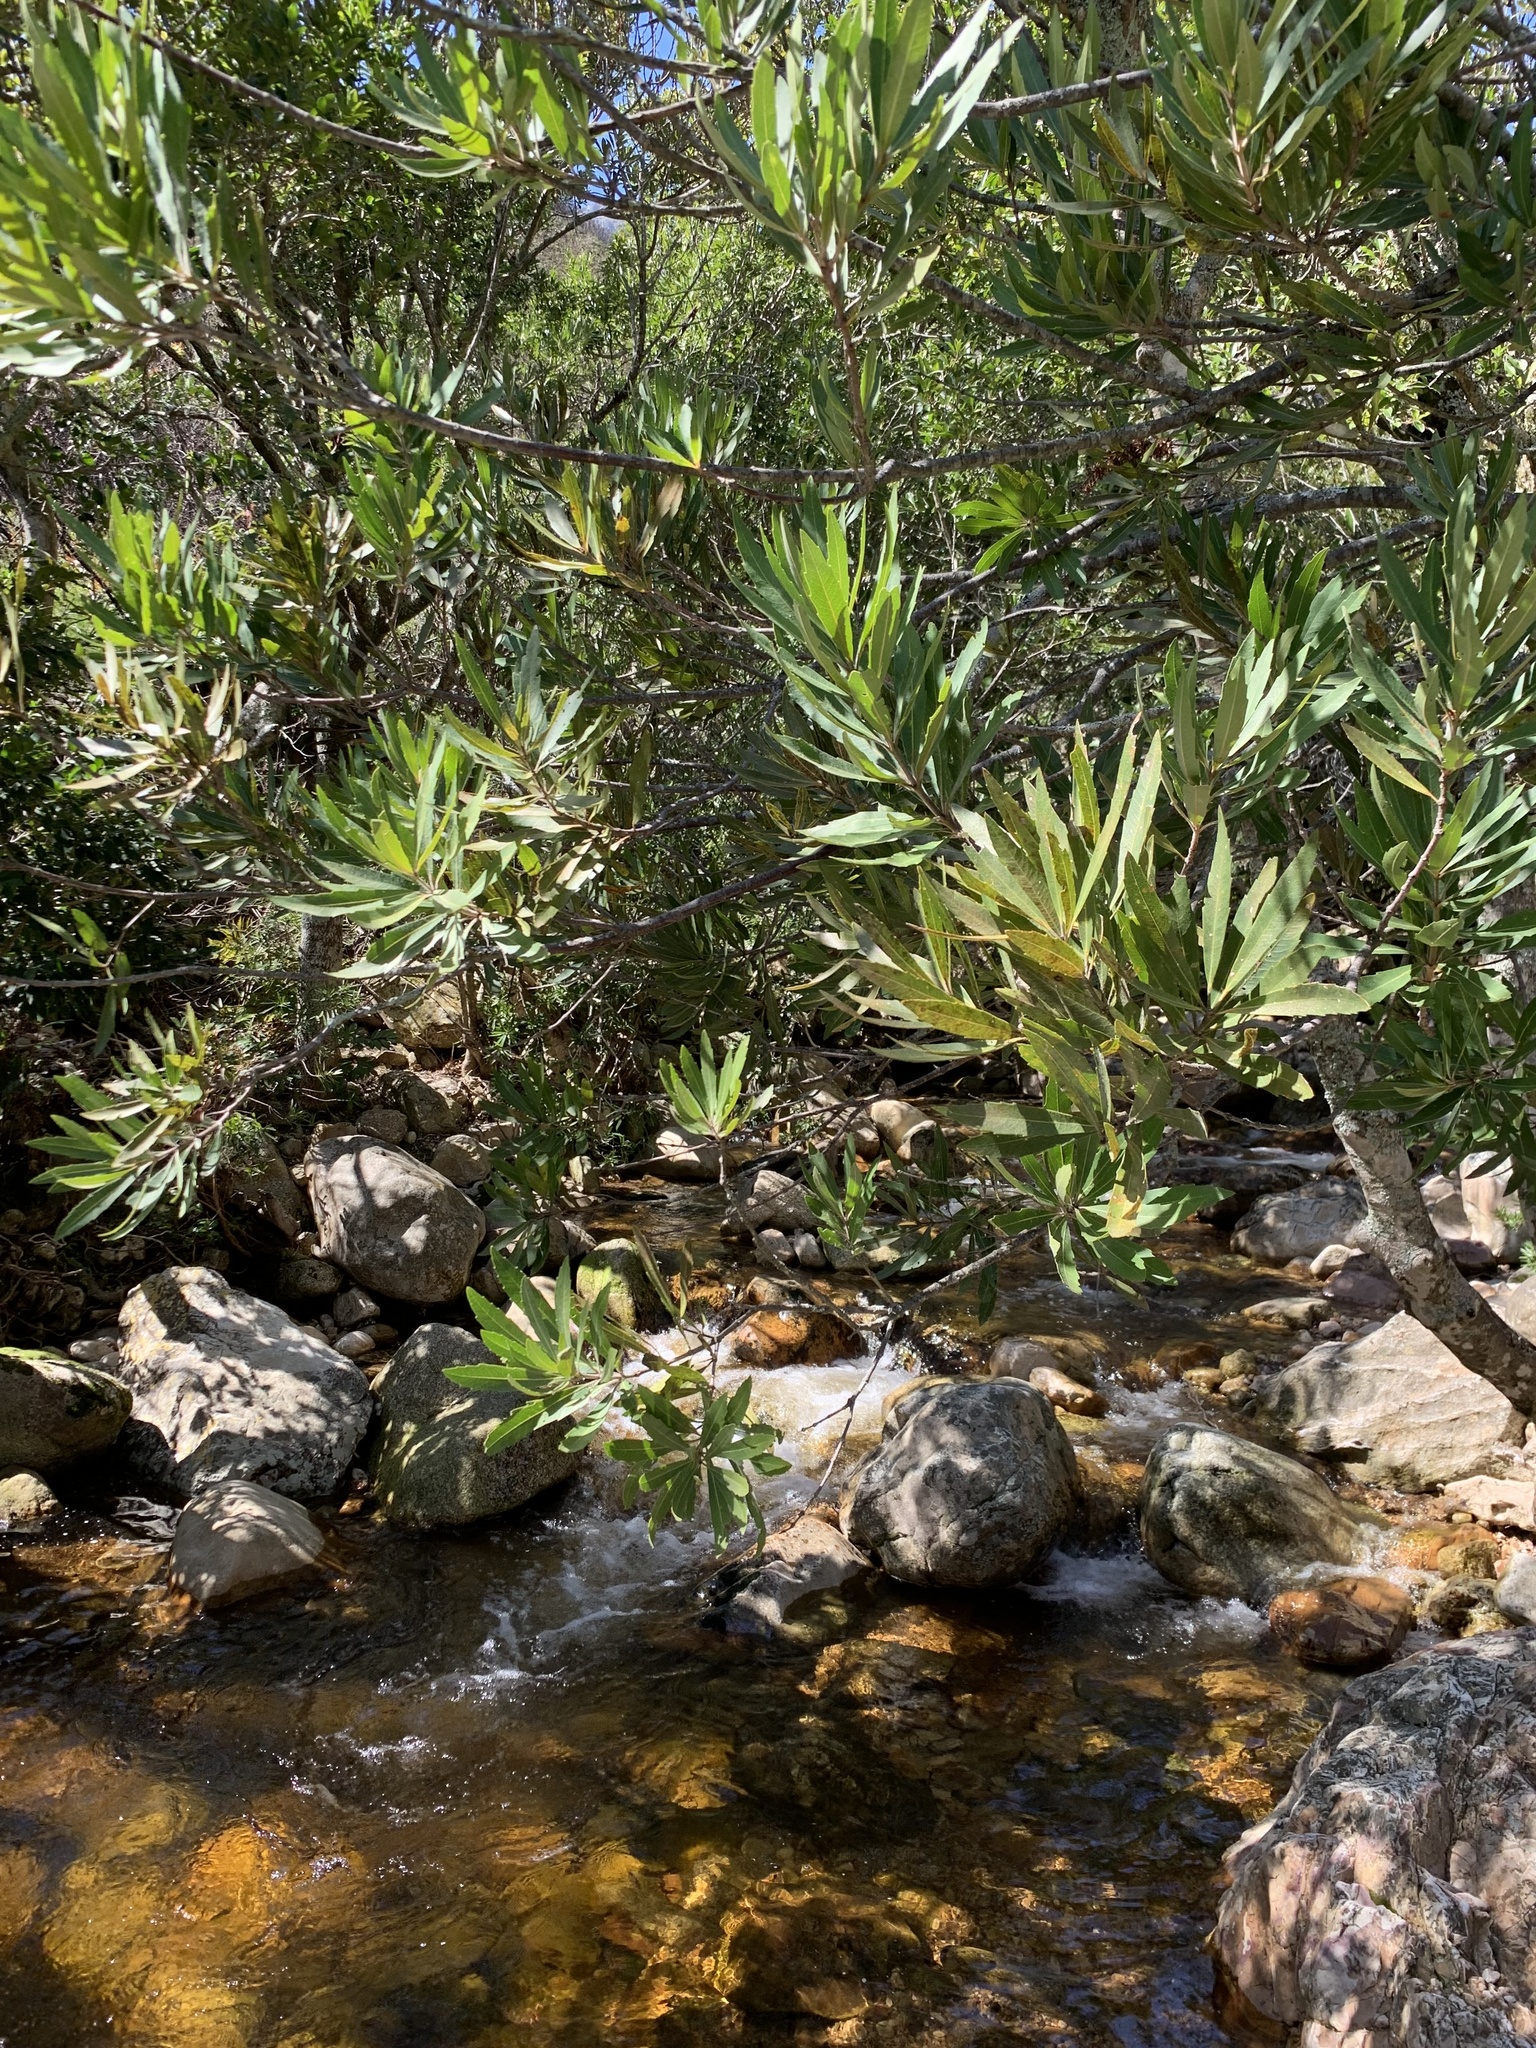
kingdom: Plantae
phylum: Tracheophyta
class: Magnoliopsida
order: Proteales
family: Proteaceae
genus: Brabejum
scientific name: Brabejum stellatifolium
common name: Wild almond
